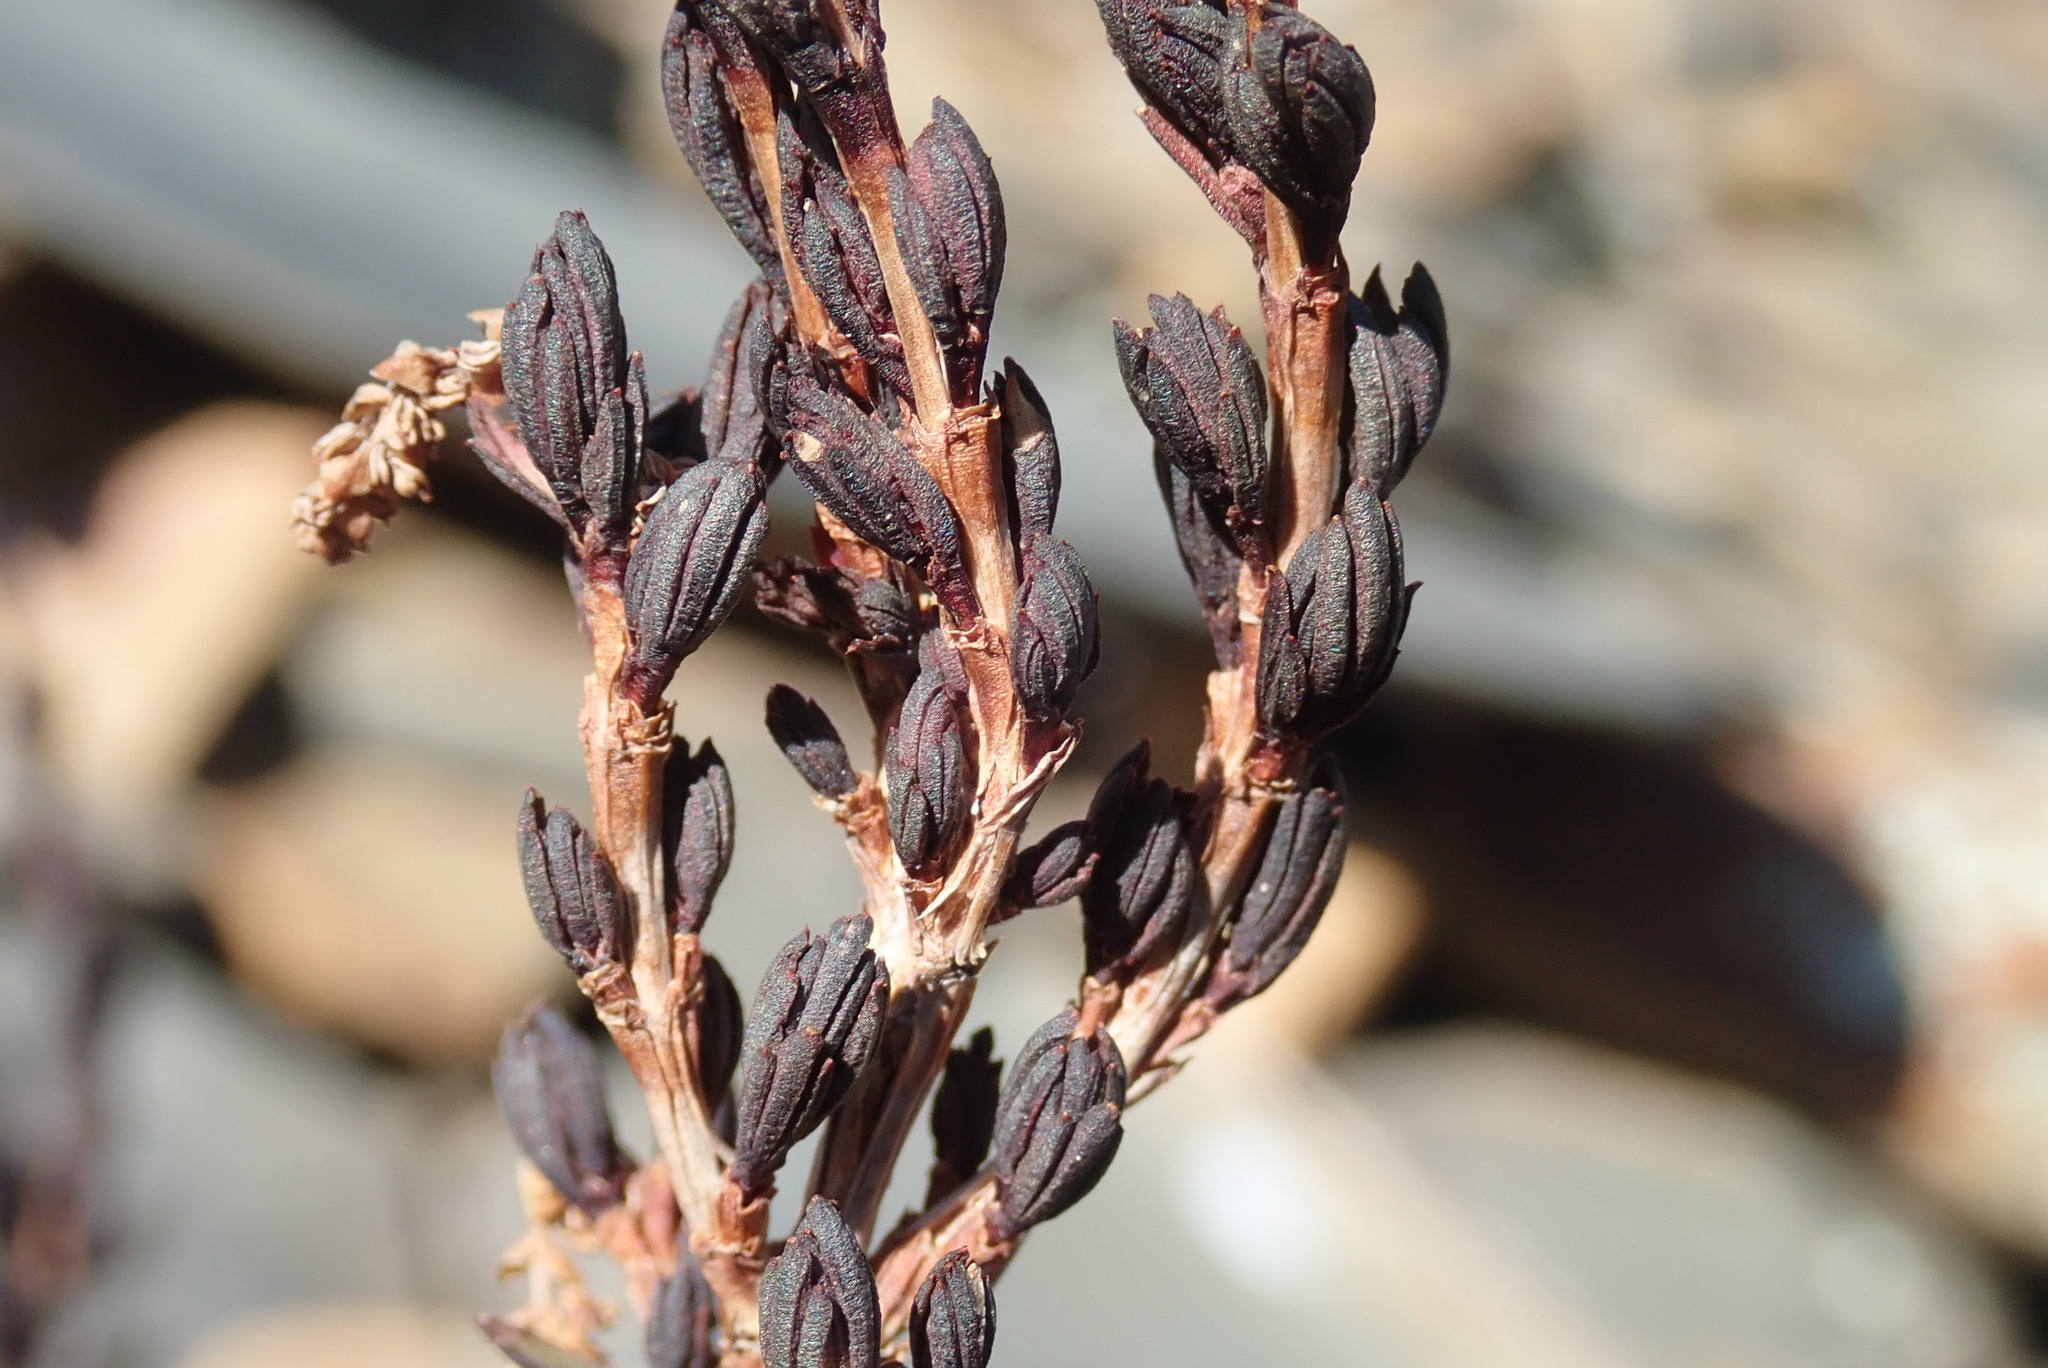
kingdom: Plantae
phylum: Tracheophyta
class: Magnoliopsida
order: Gunnerales
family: Myrothamnaceae
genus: Myrothamnus
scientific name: Myrothamnus flabellifolius
